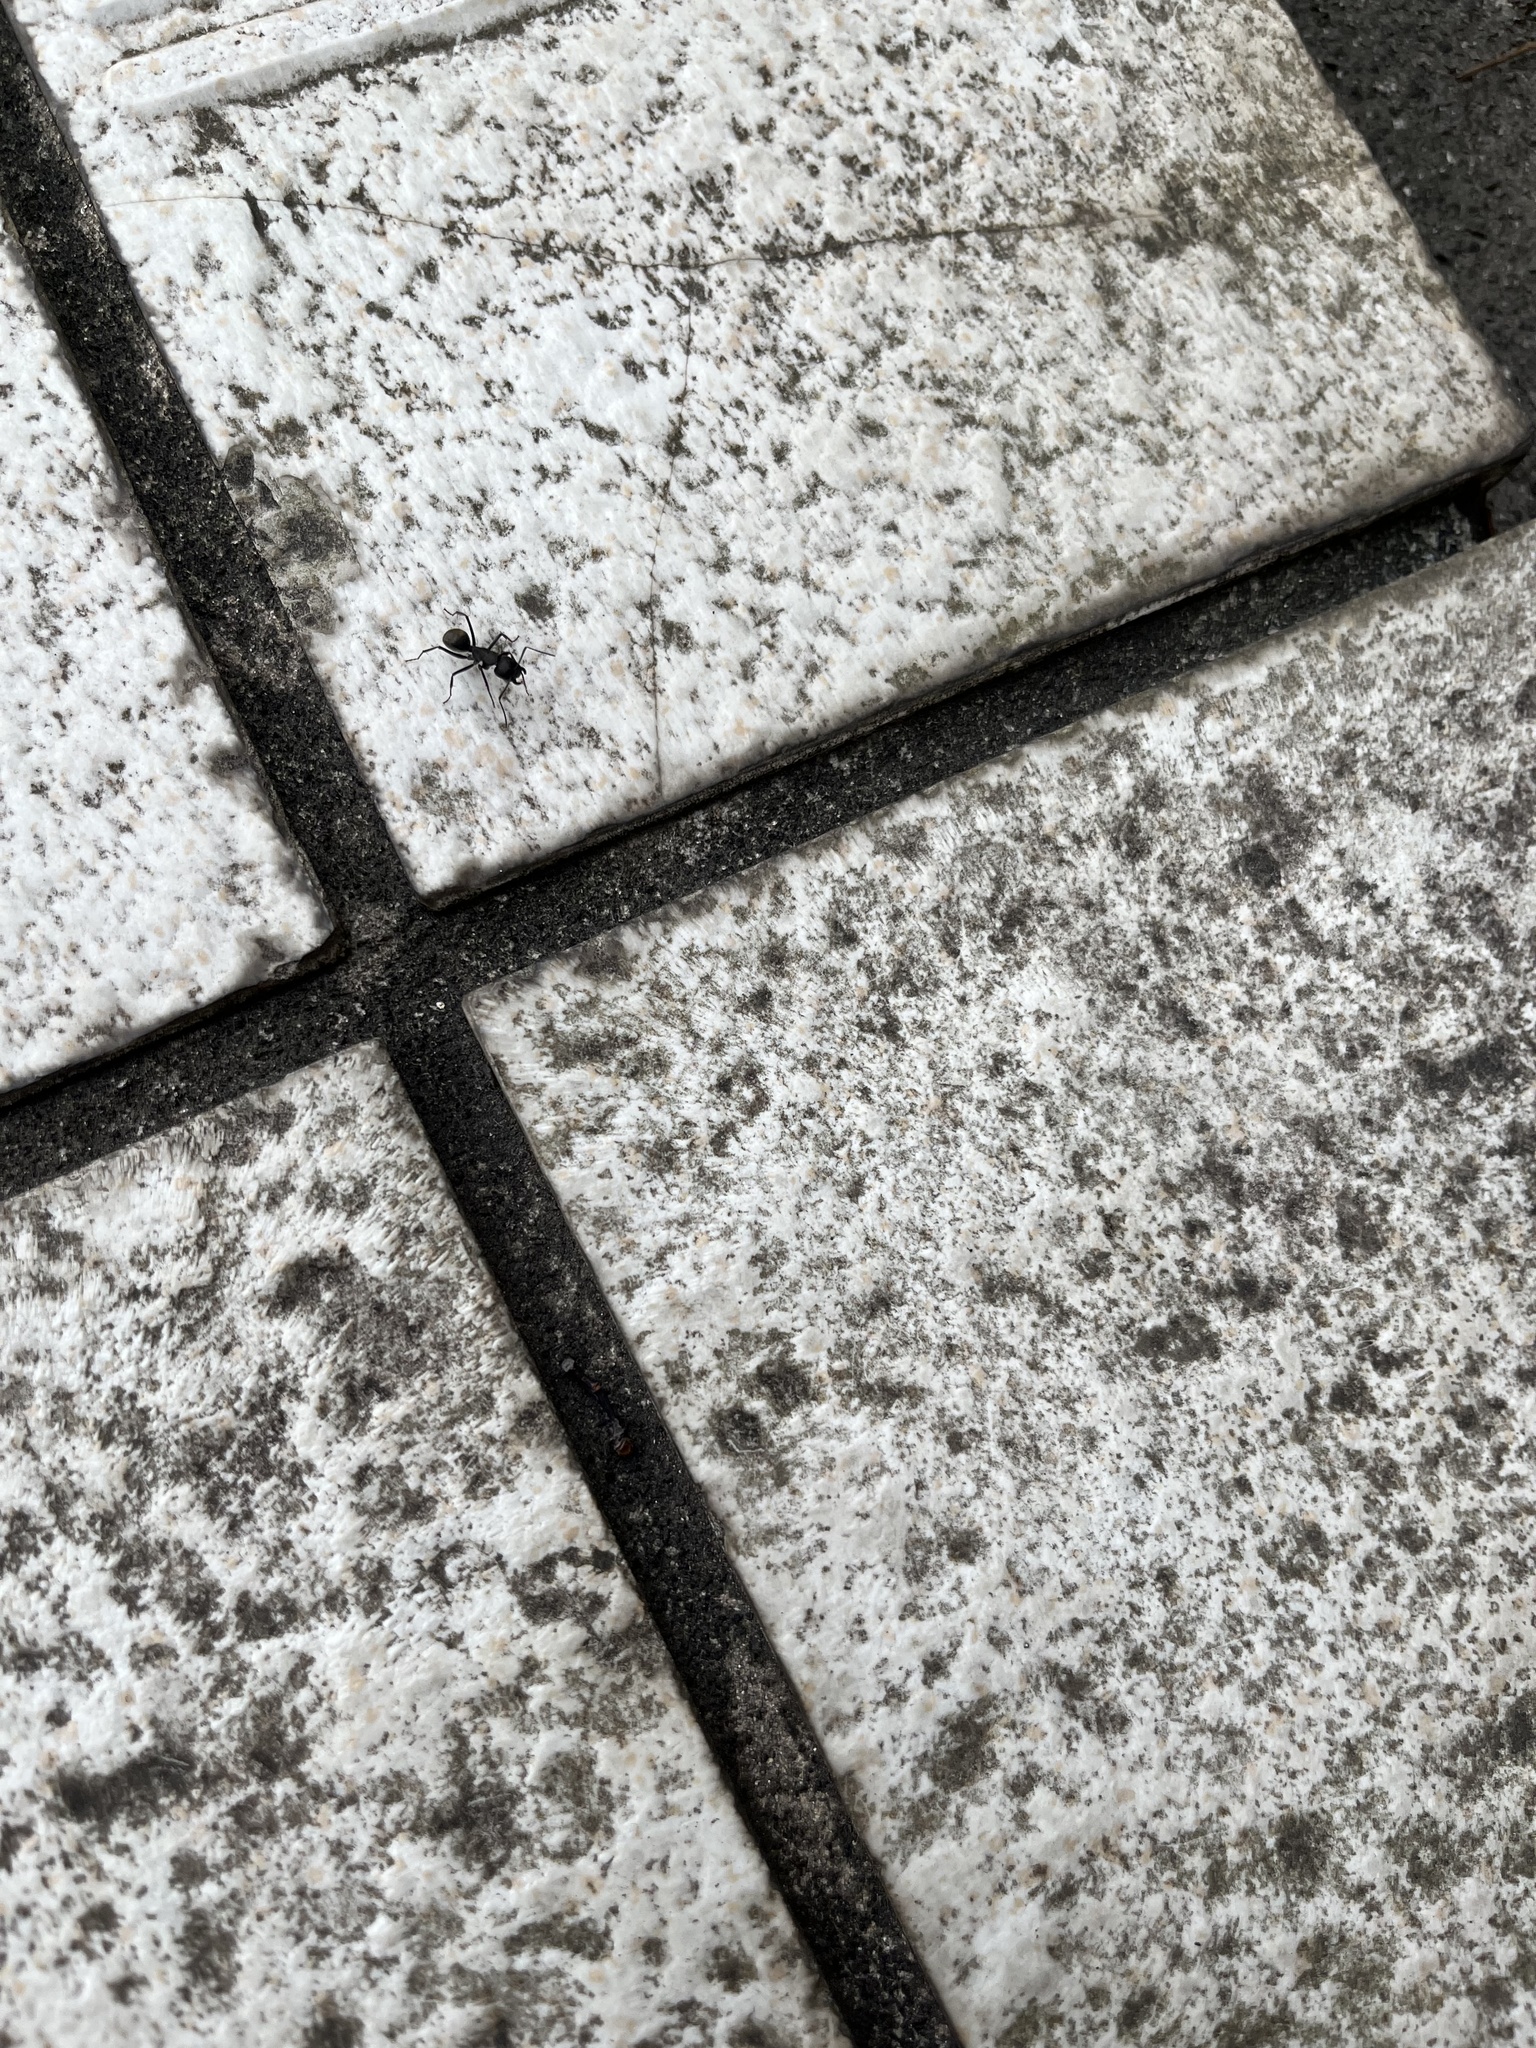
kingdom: Animalia
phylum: Arthropoda
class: Insecta
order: Hymenoptera
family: Formicidae
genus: Camponotus
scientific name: Camponotus japonicus
